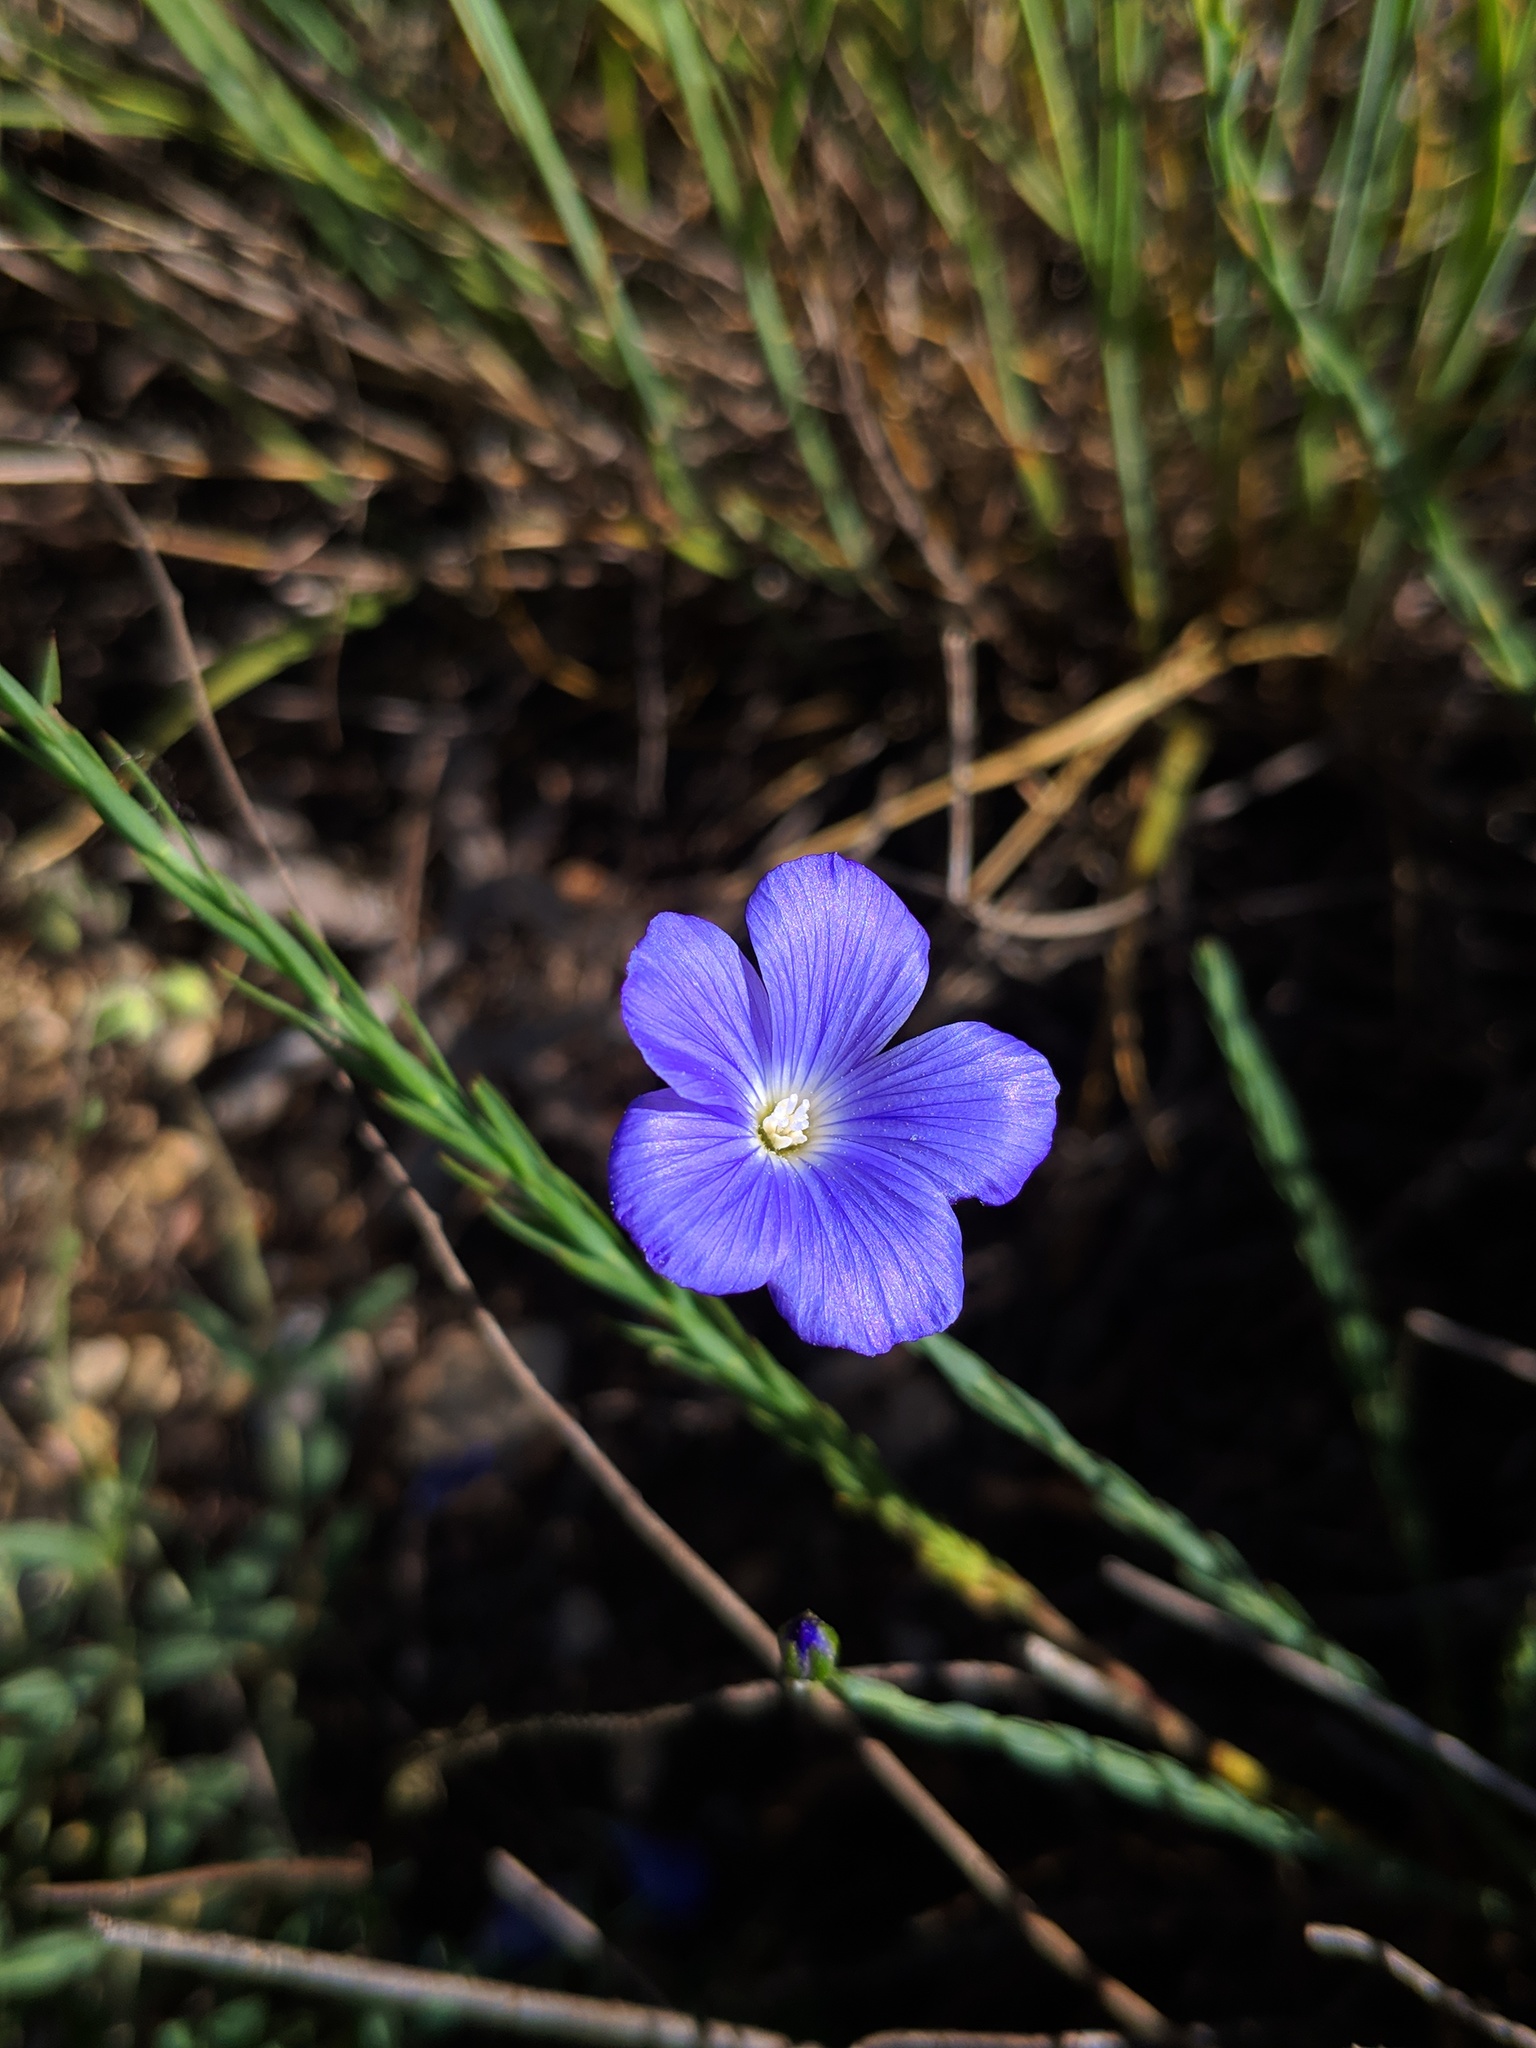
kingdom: Plantae
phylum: Tracheophyta
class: Magnoliopsida
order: Malpighiales
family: Linaceae
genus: Linum
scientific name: Linum narbonense
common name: Flax
